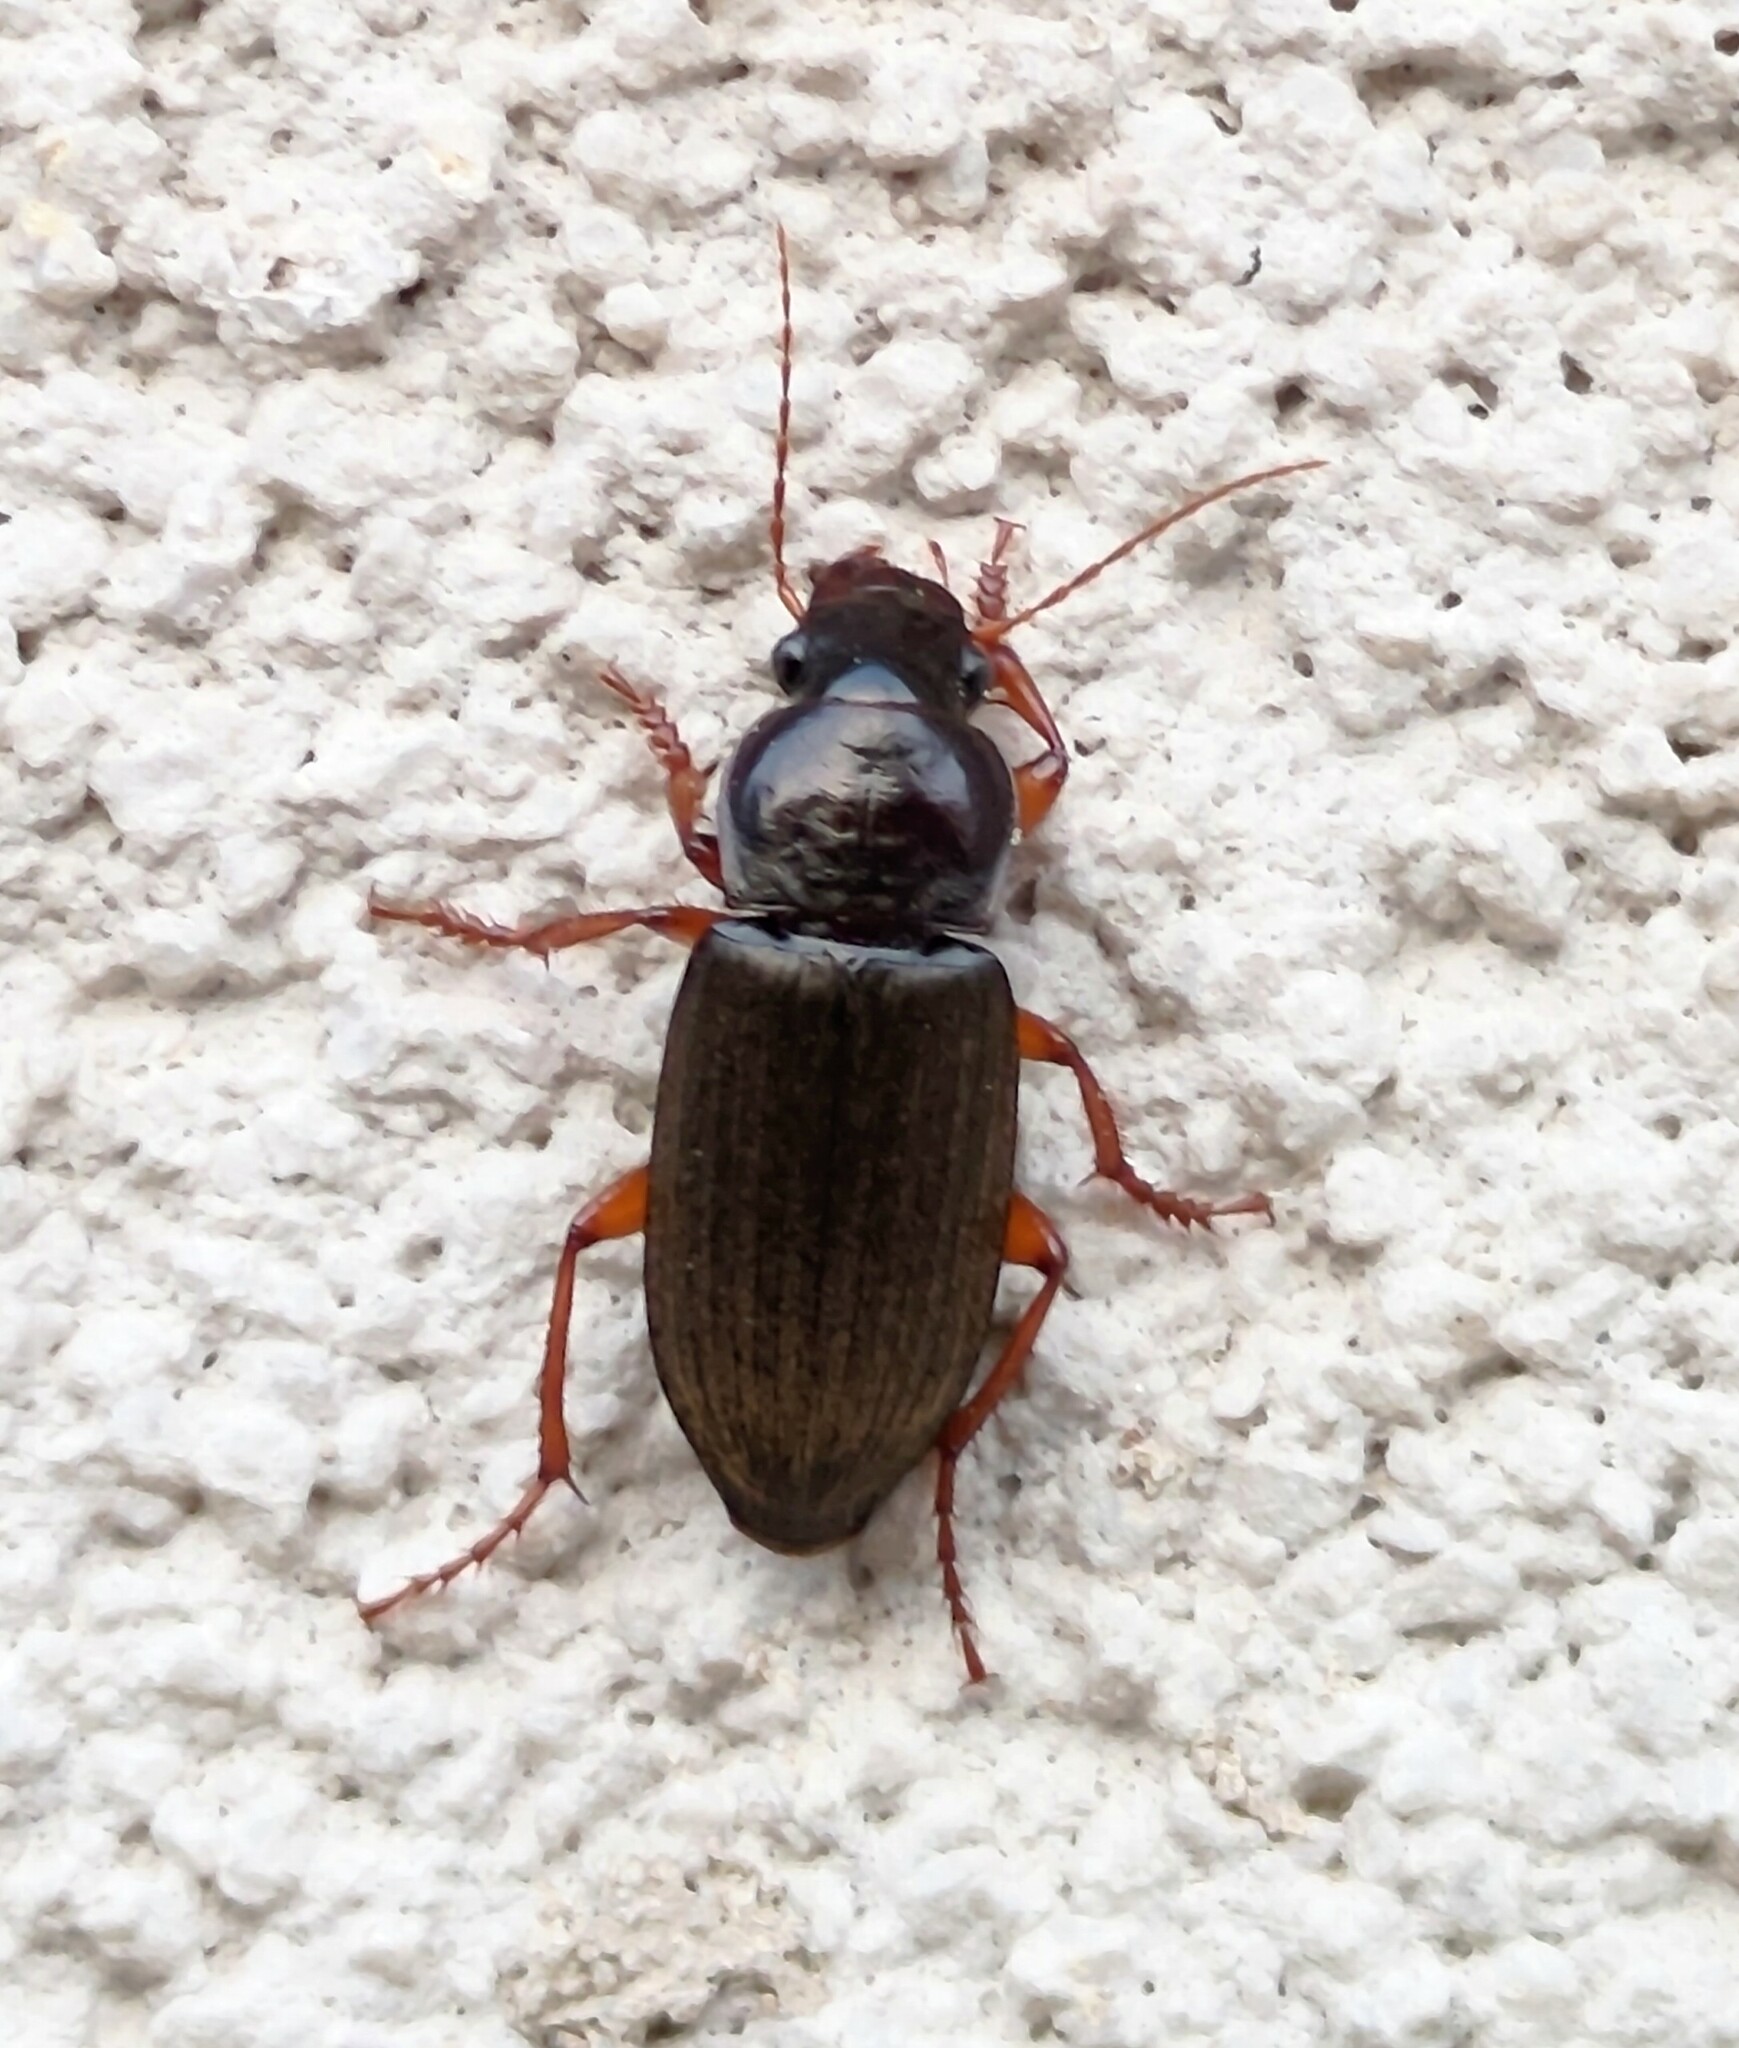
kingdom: Animalia
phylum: Arthropoda
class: Insecta
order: Coleoptera
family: Carabidae
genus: Harpalus
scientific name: Harpalus rufipes
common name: Strawberry harp ground beetle
